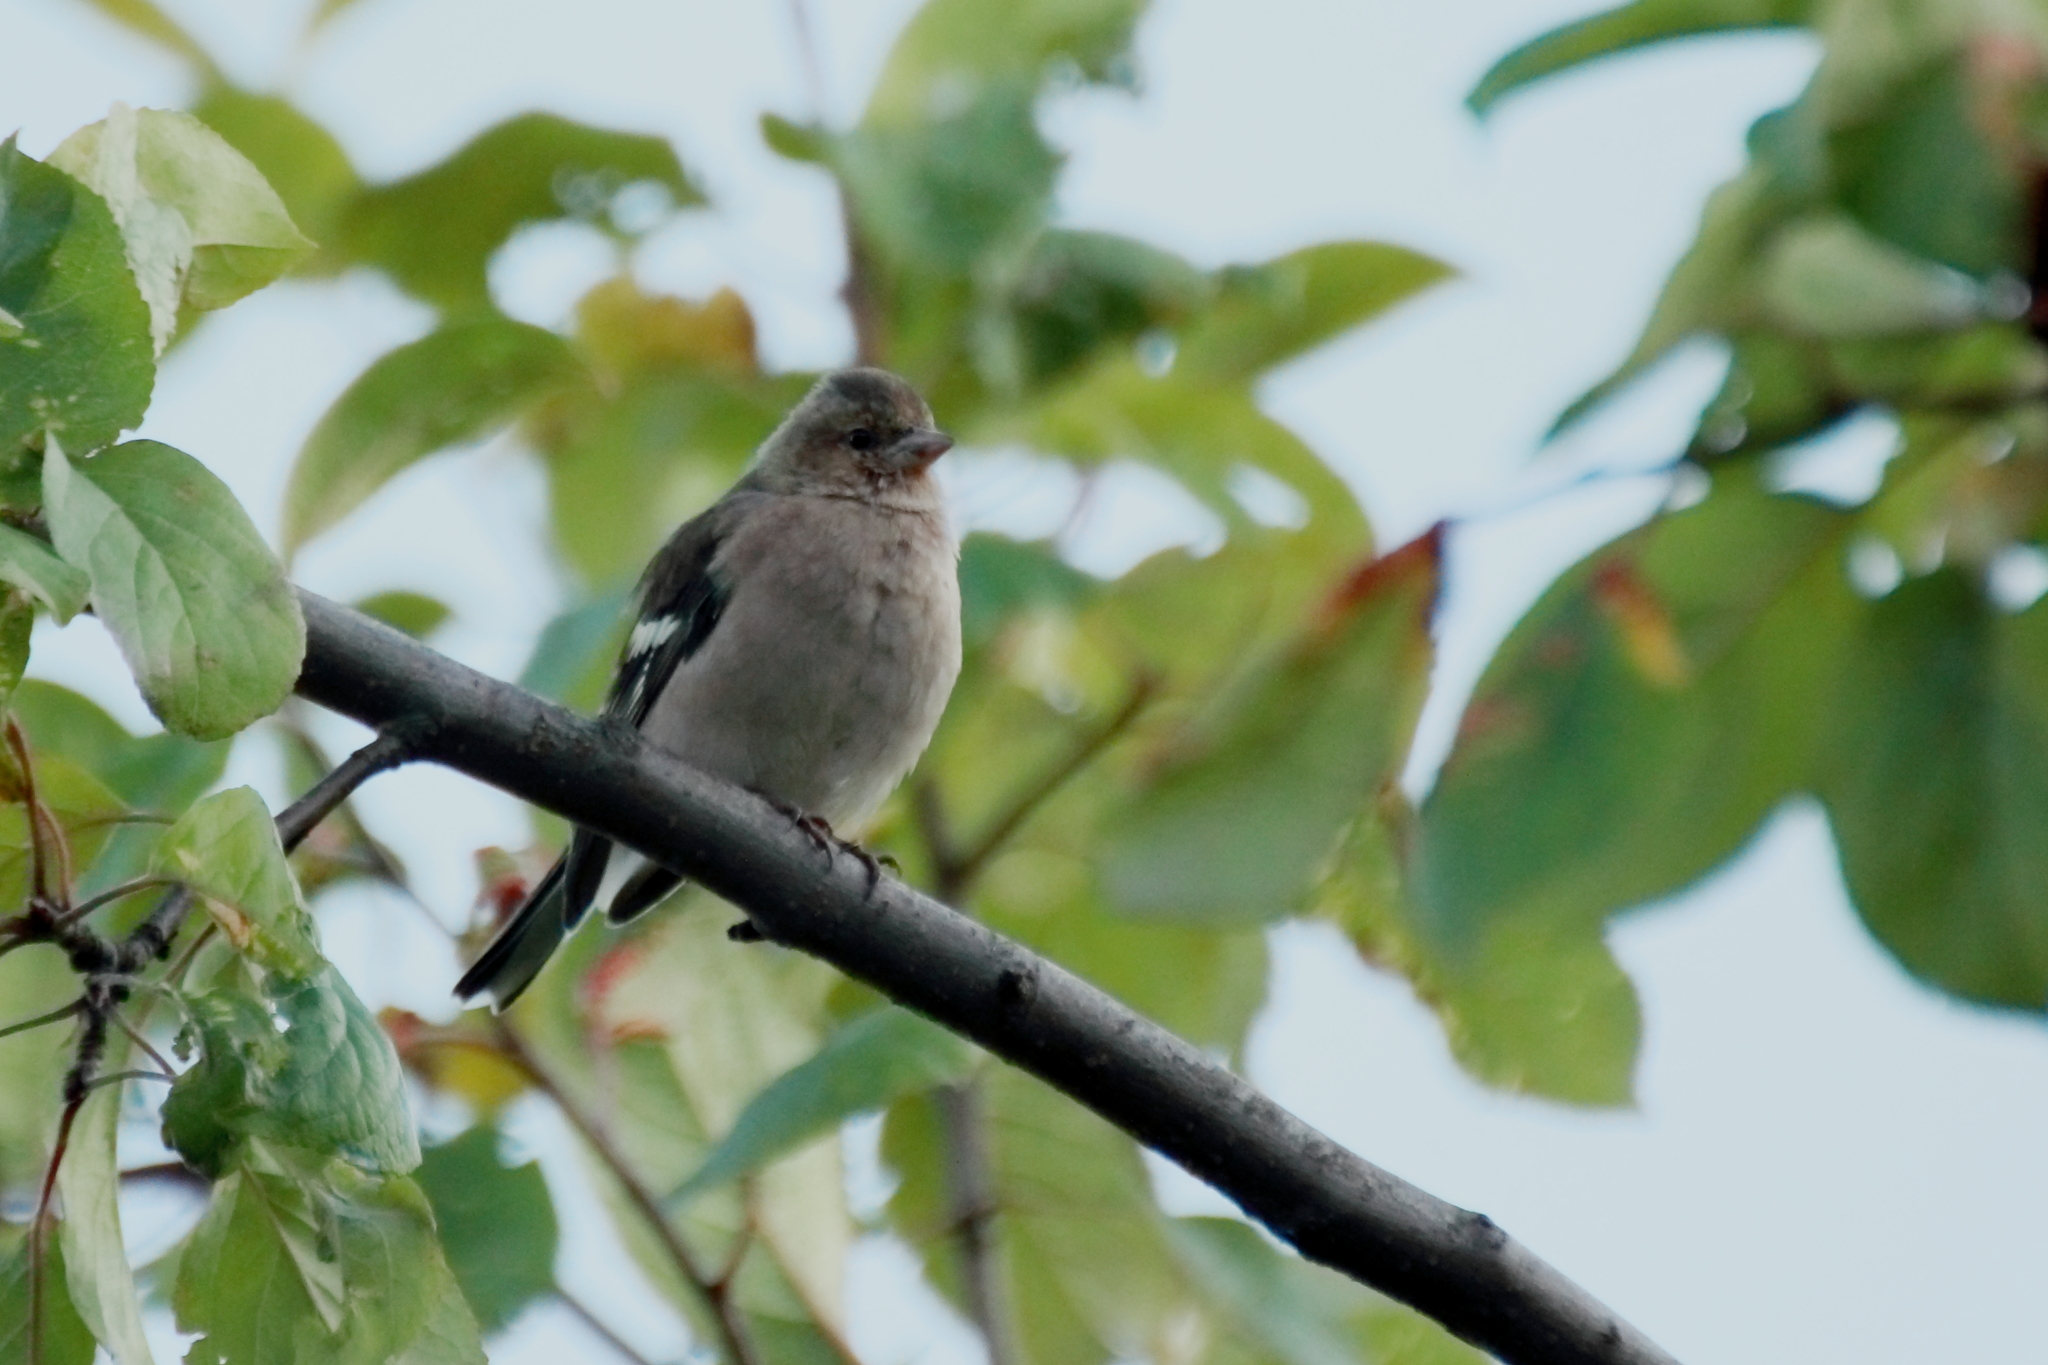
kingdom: Animalia
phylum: Chordata
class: Aves
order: Passeriformes
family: Fringillidae
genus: Fringilla
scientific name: Fringilla coelebs
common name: Common chaffinch
